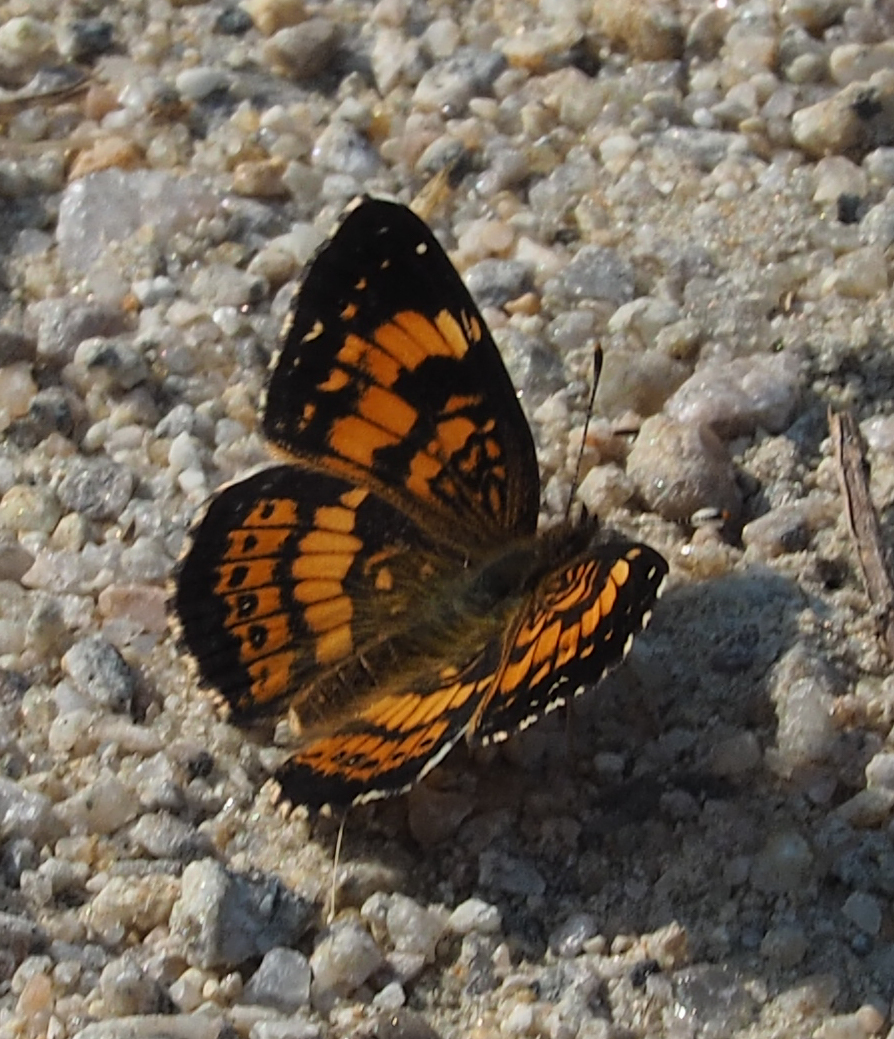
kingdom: Animalia
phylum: Arthropoda
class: Insecta
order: Lepidoptera
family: Nymphalidae
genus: Chlosyne
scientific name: Chlosyne nycteis
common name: Silvery checkerspot
